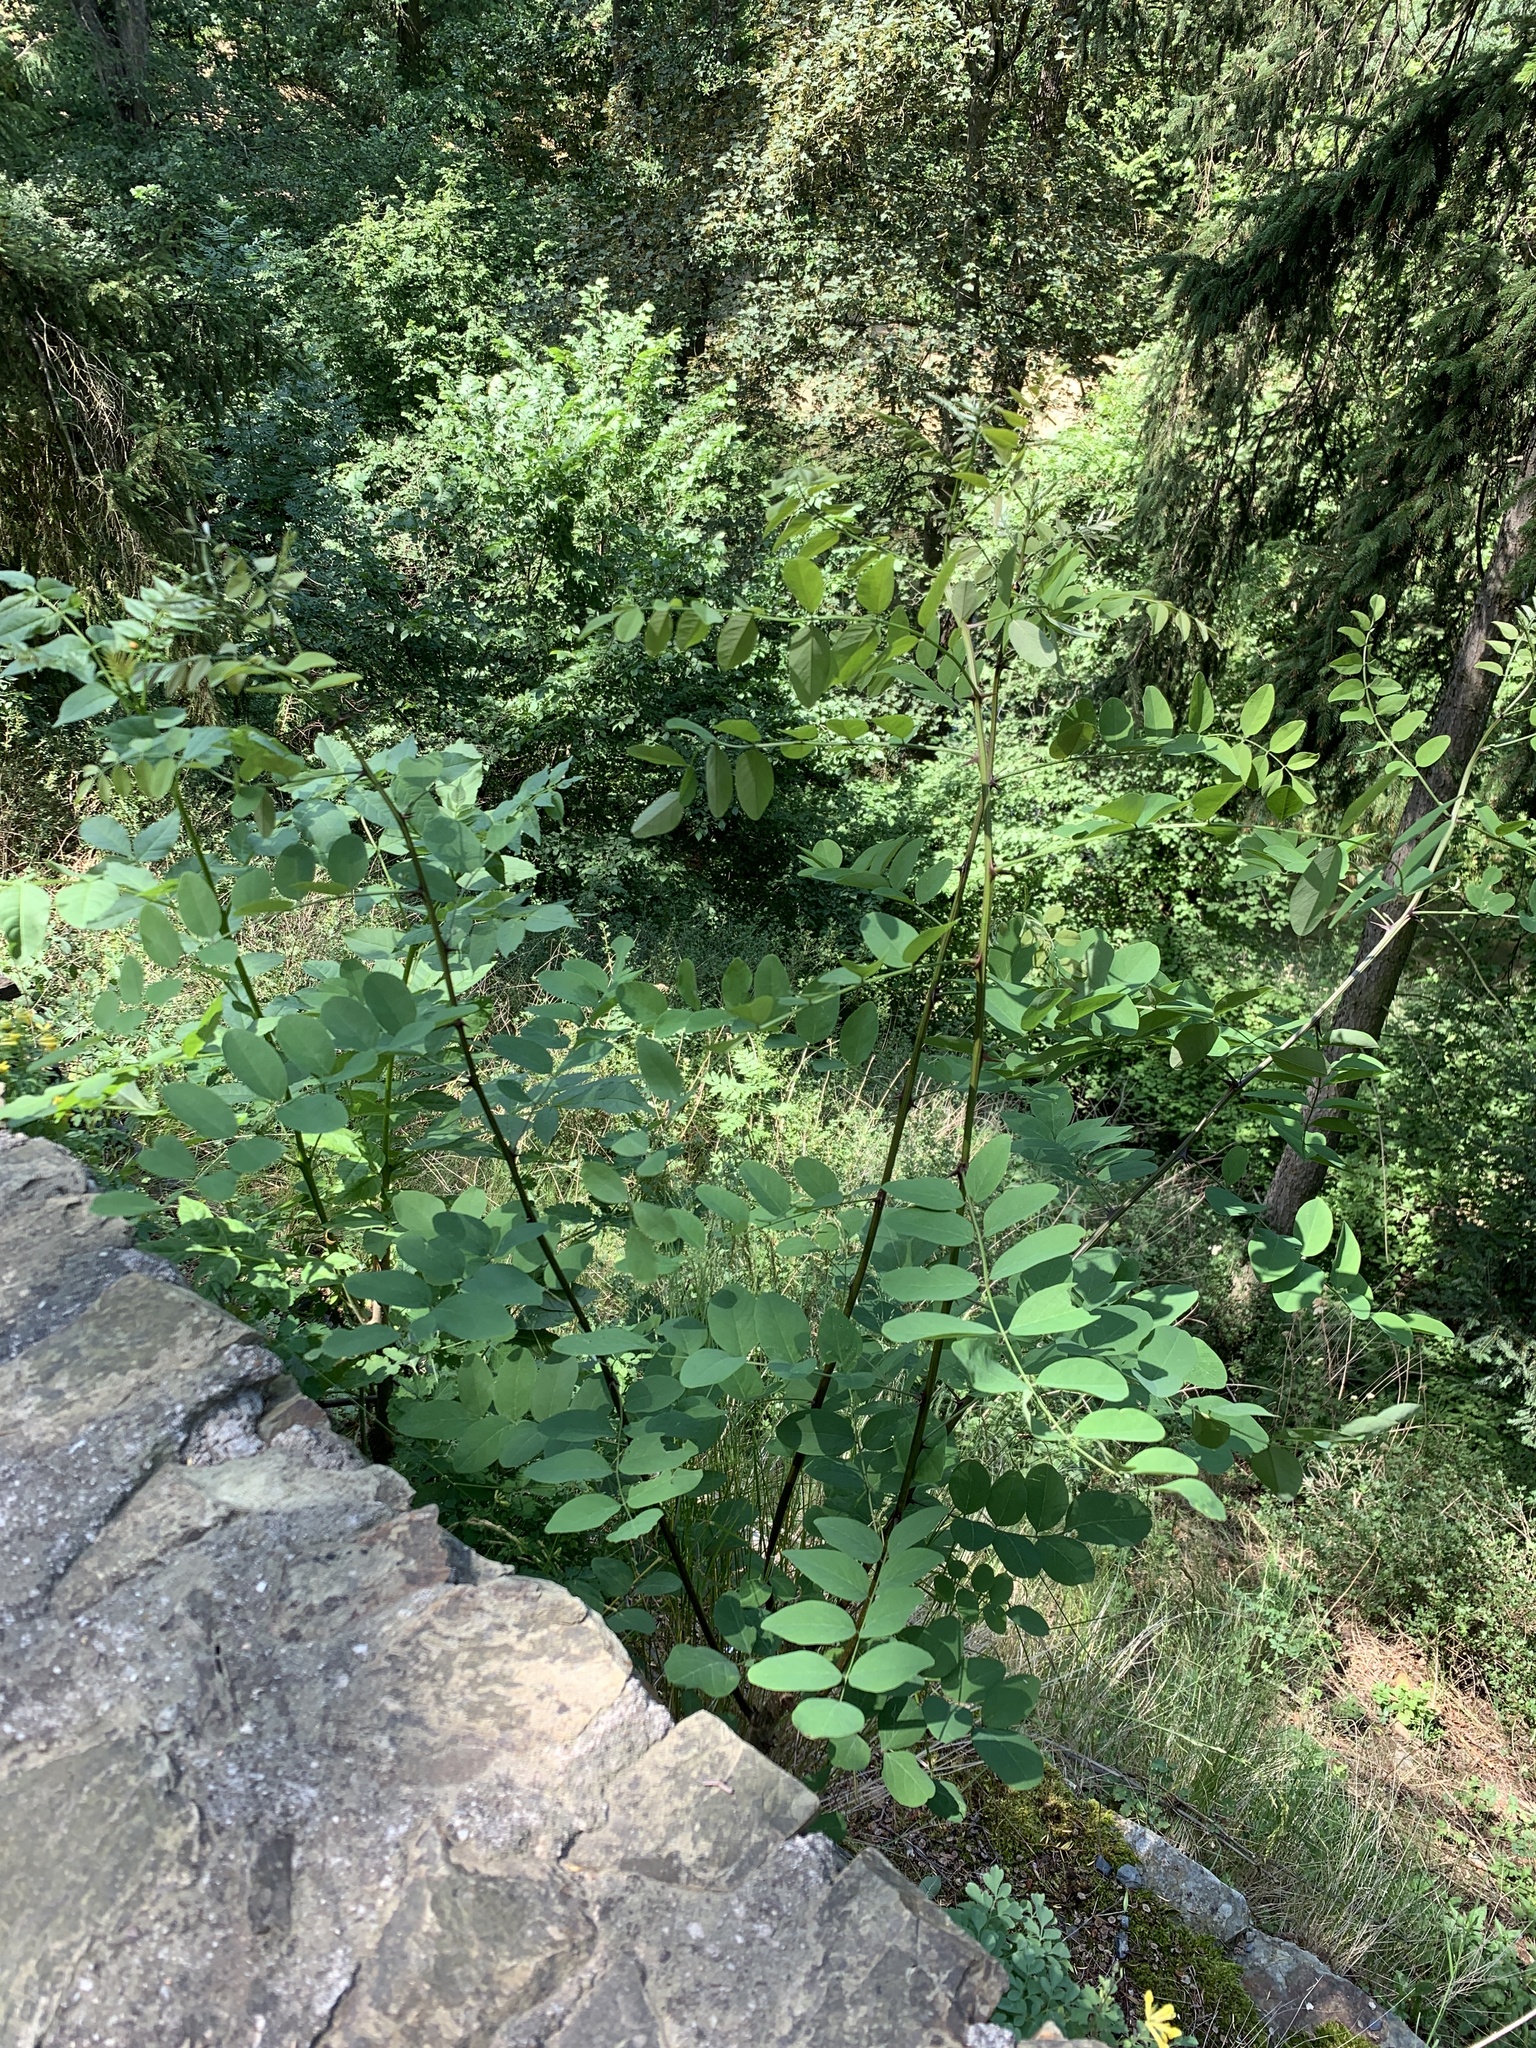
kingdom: Plantae
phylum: Tracheophyta
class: Magnoliopsida
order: Fabales
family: Fabaceae
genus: Robinia
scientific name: Robinia pseudoacacia
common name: Black locust
